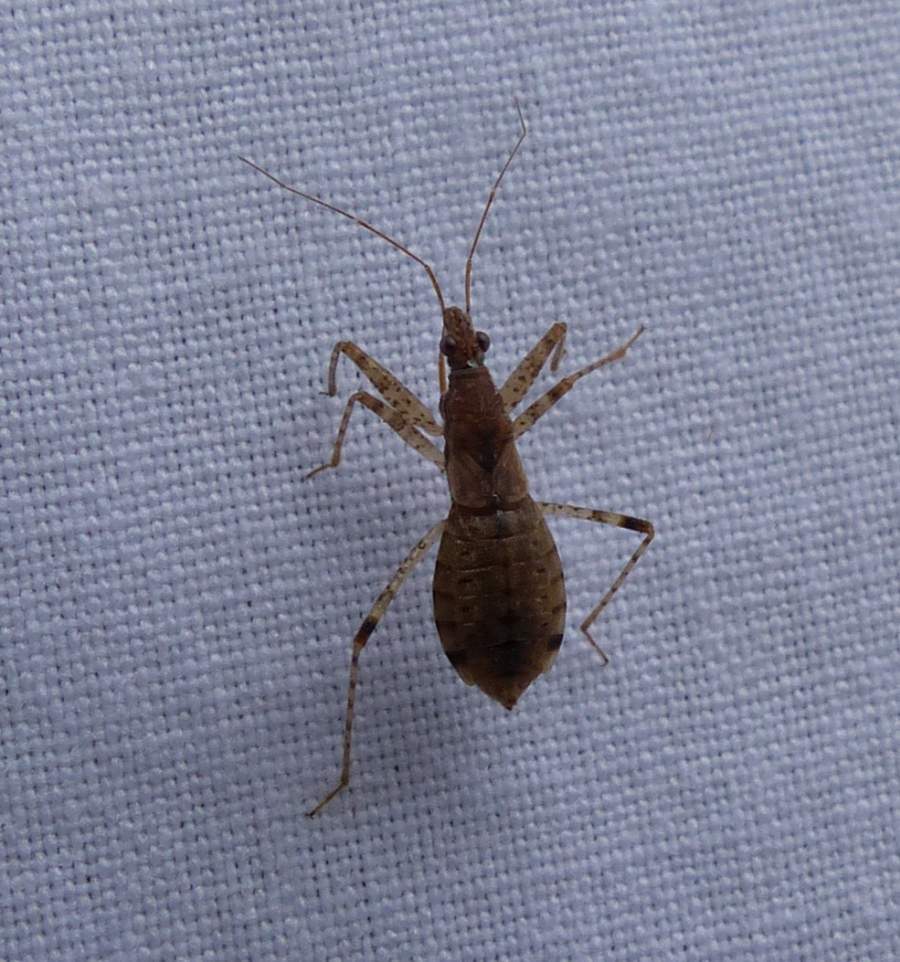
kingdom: Animalia
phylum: Arthropoda
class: Insecta
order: Hemiptera
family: Nabidae
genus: Hoplistoscelis
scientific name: Hoplistoscelis pallescens
